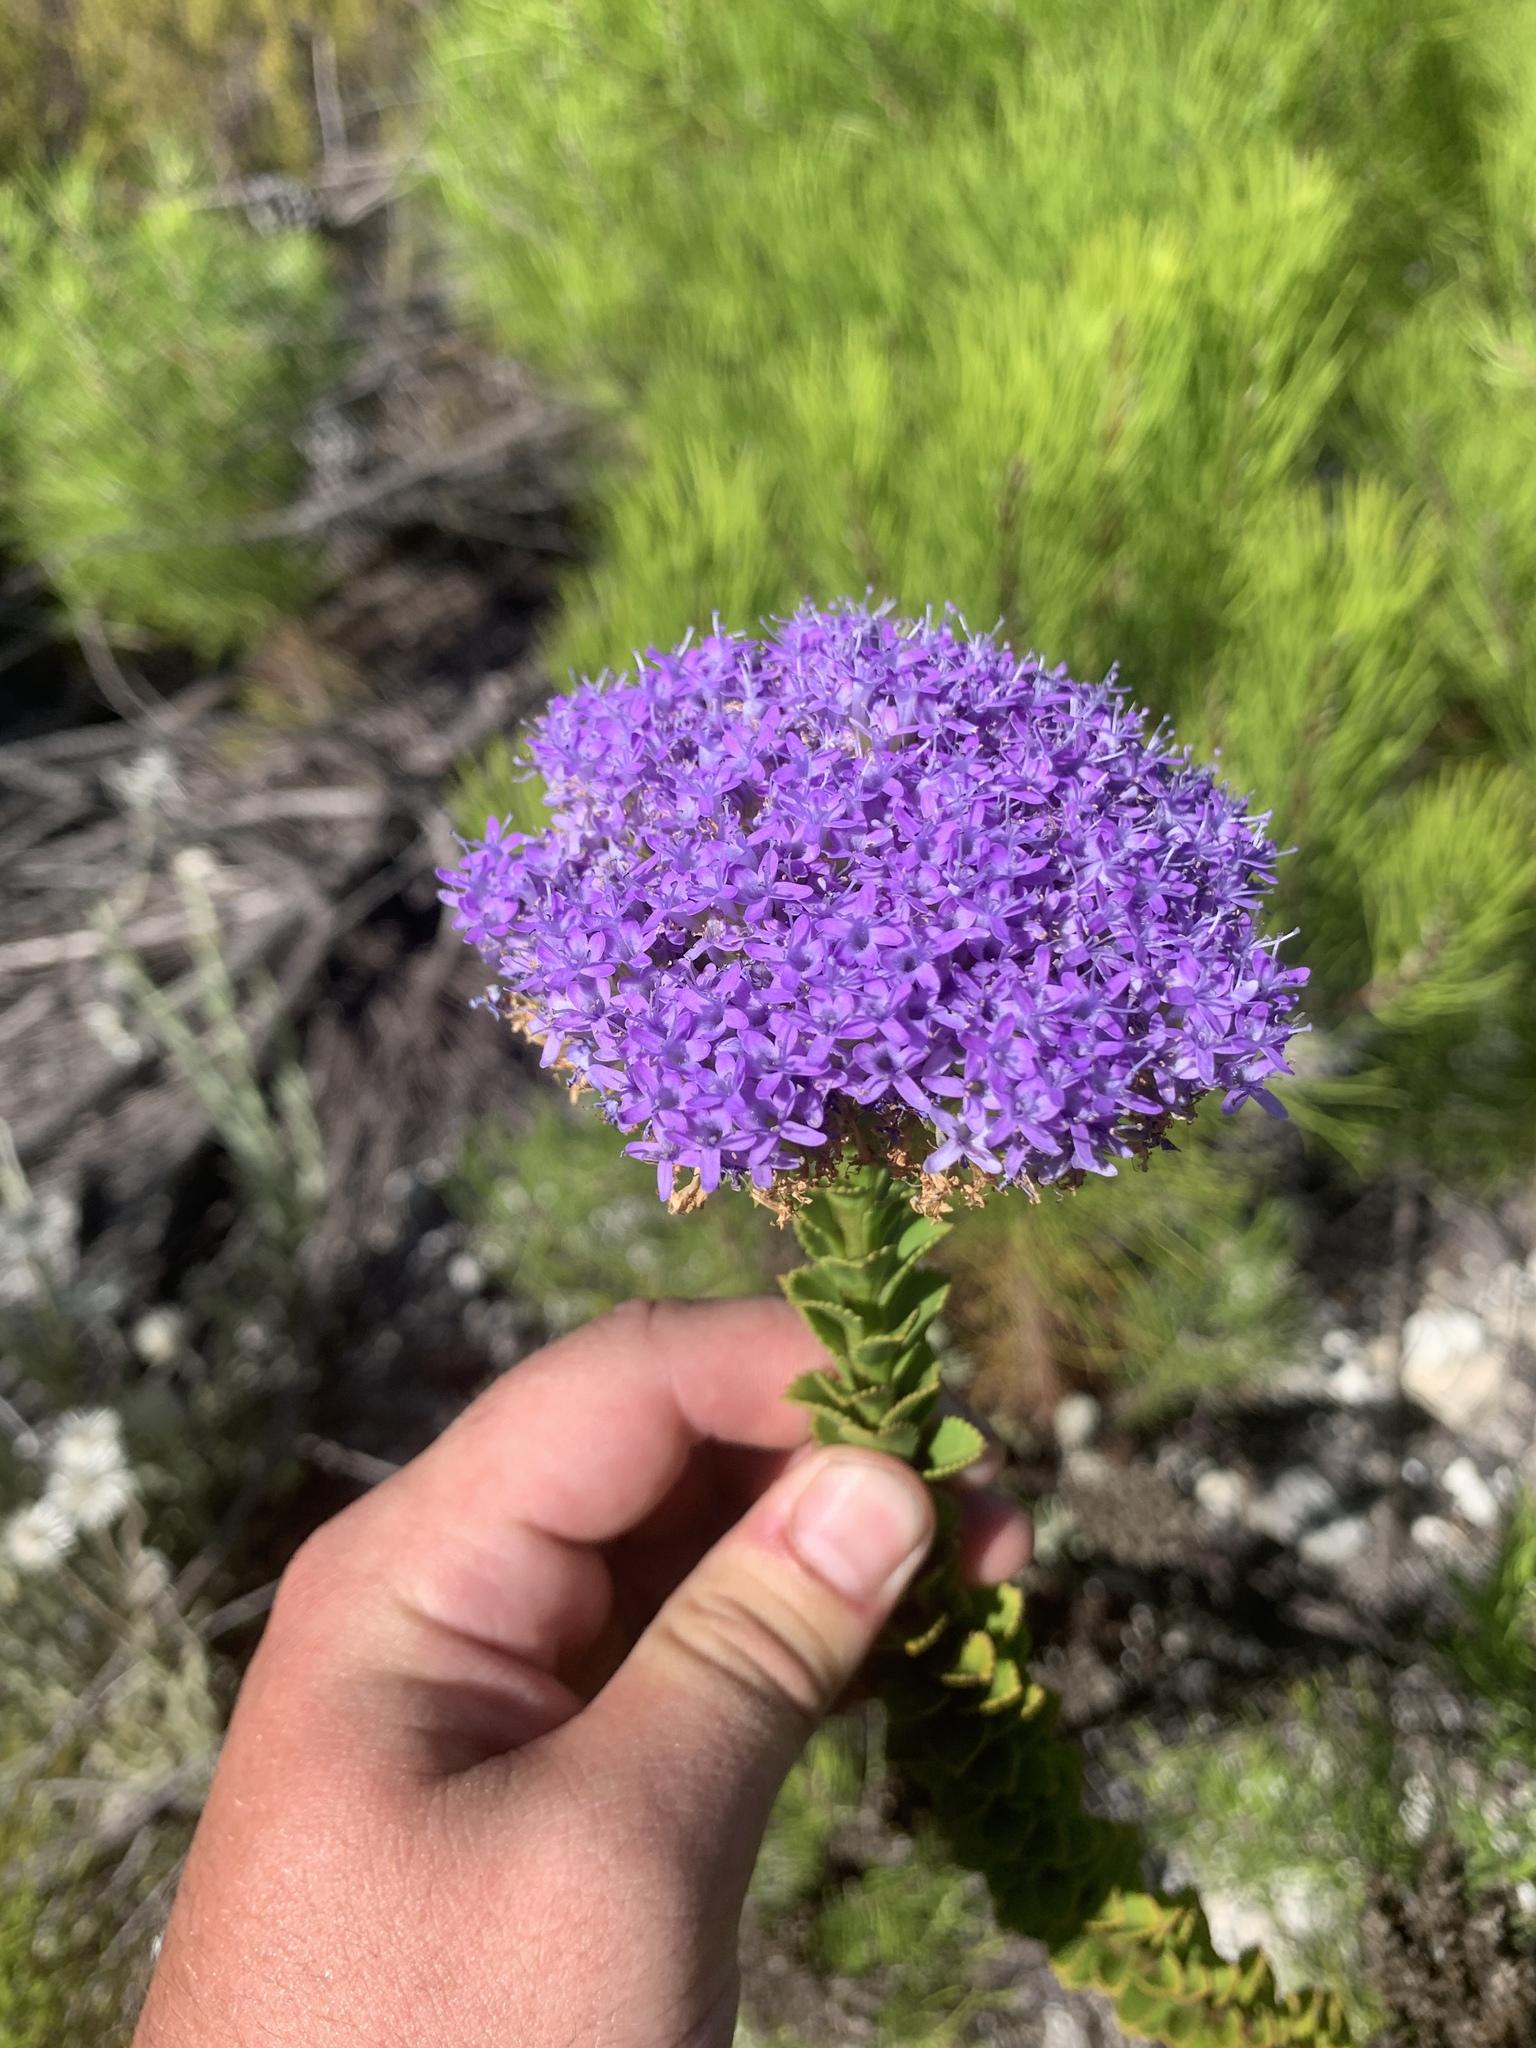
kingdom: Plantae
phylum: Tracheophyta
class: Magnoliopsida
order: Lamiales
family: Scrophulariaceae
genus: Pseudoselago
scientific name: Pseudoselago pulchra
